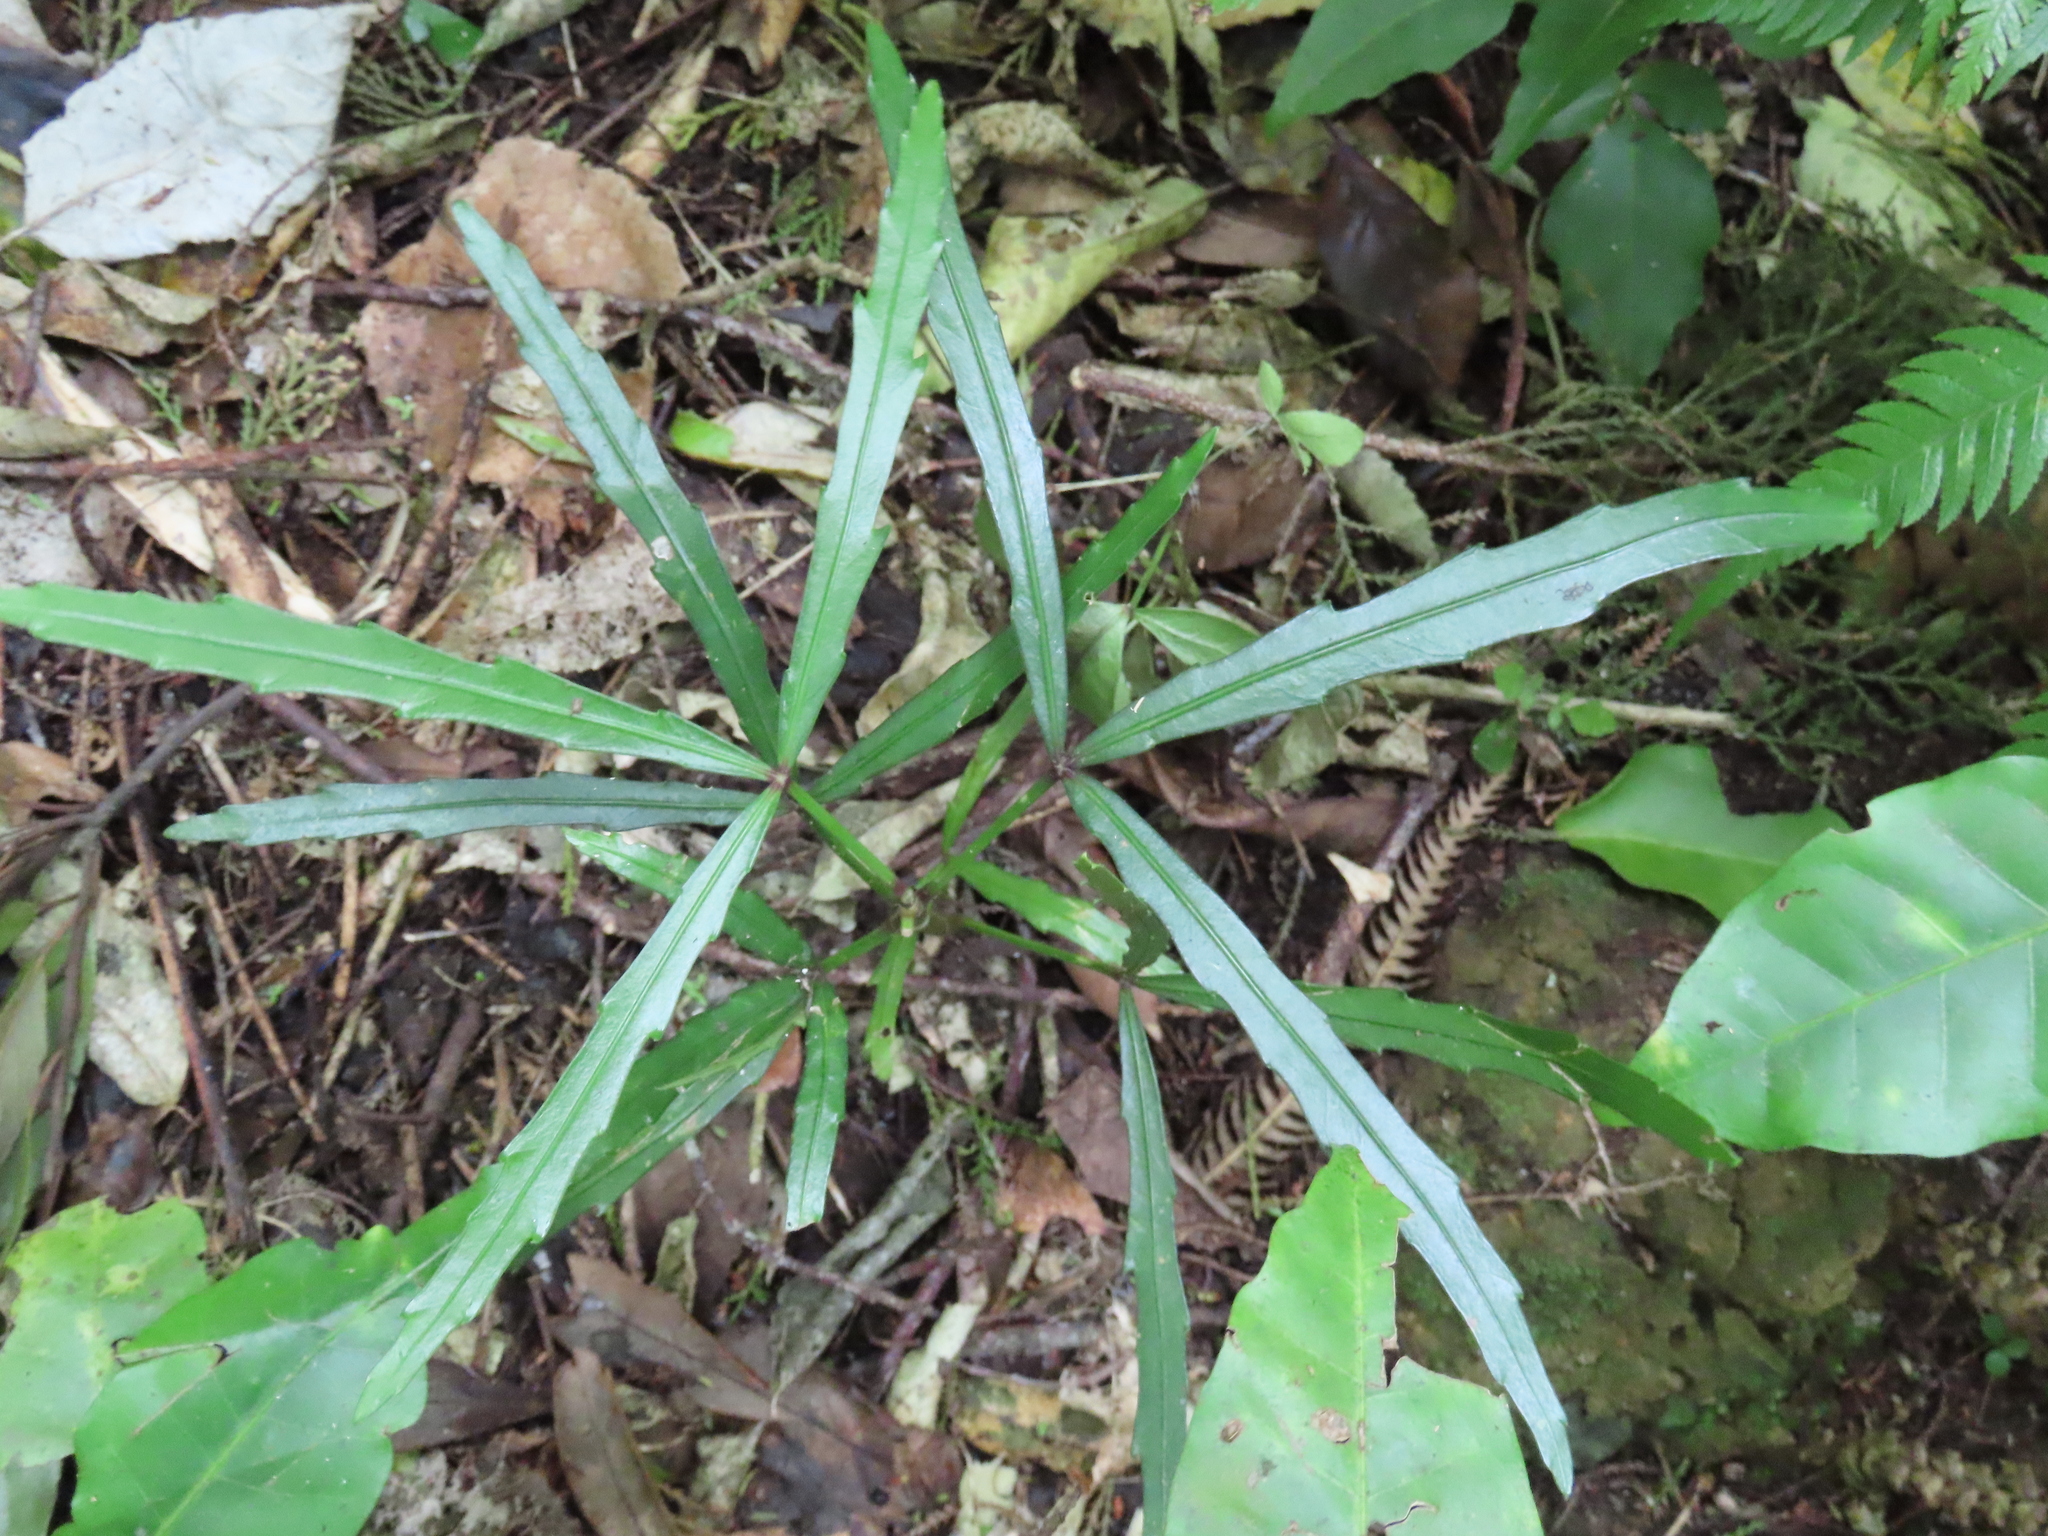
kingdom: Plantae
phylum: Tracheophyta
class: Magnoliopsida
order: Apiales
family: Araliaceae
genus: Pseudopanax
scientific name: Pseudopanax
